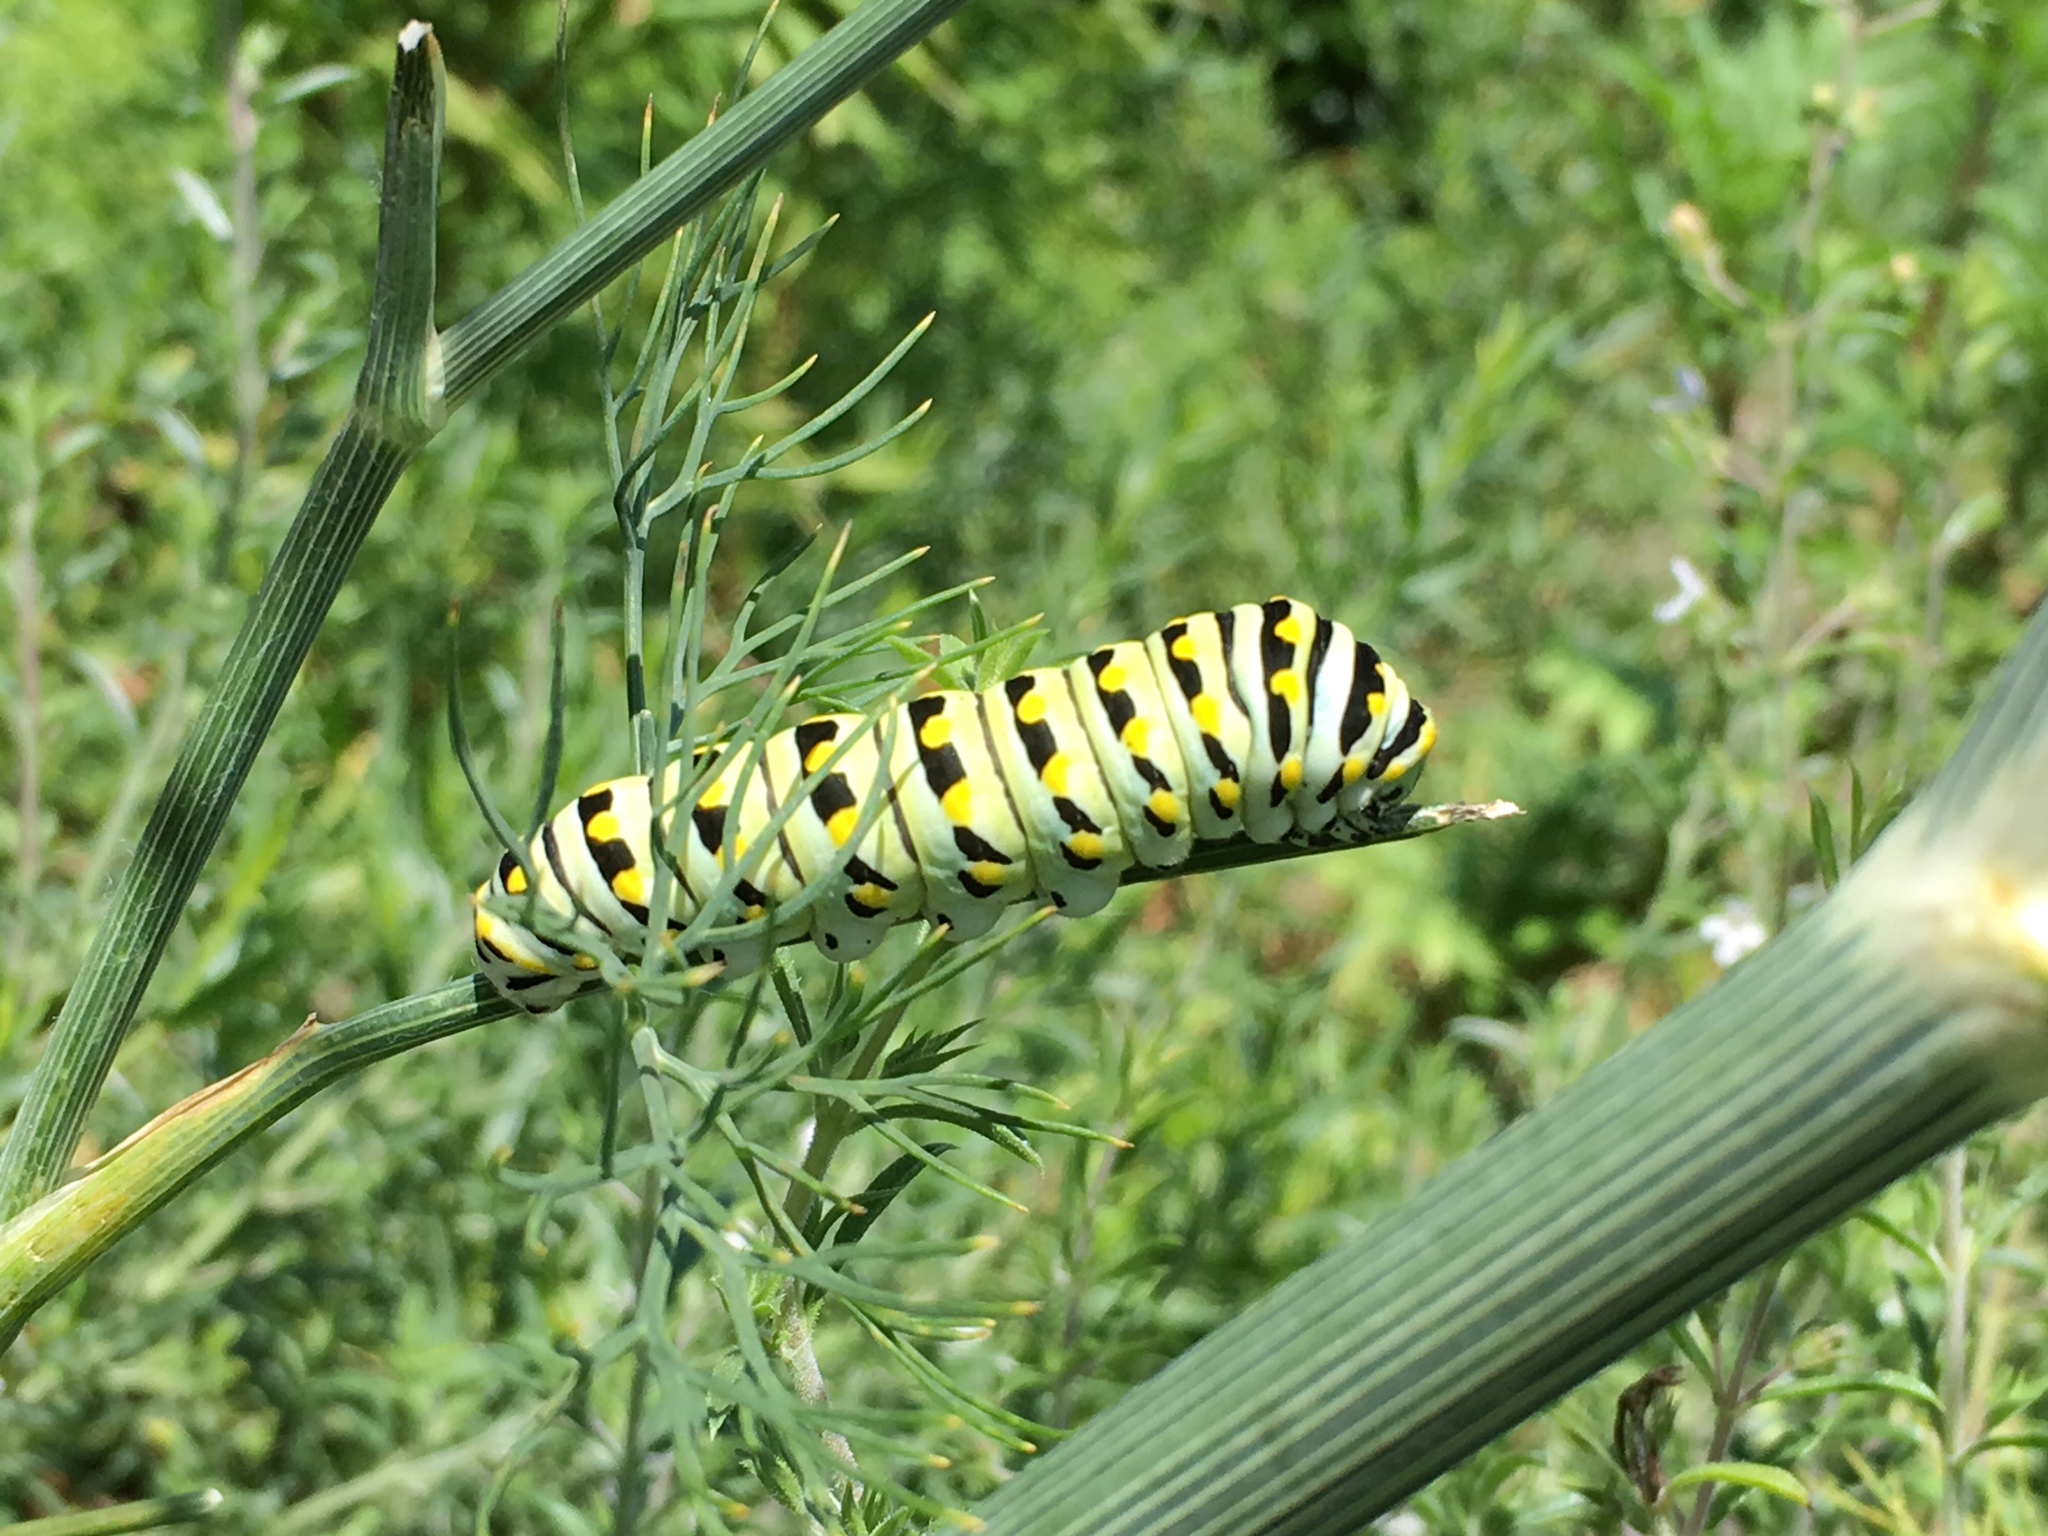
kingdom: Animalia
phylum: Arthropoda
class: Insecta
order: Lepidoptera
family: Papilionidae
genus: Papilio
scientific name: Papilio polyxenes
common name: Black swallowtail
